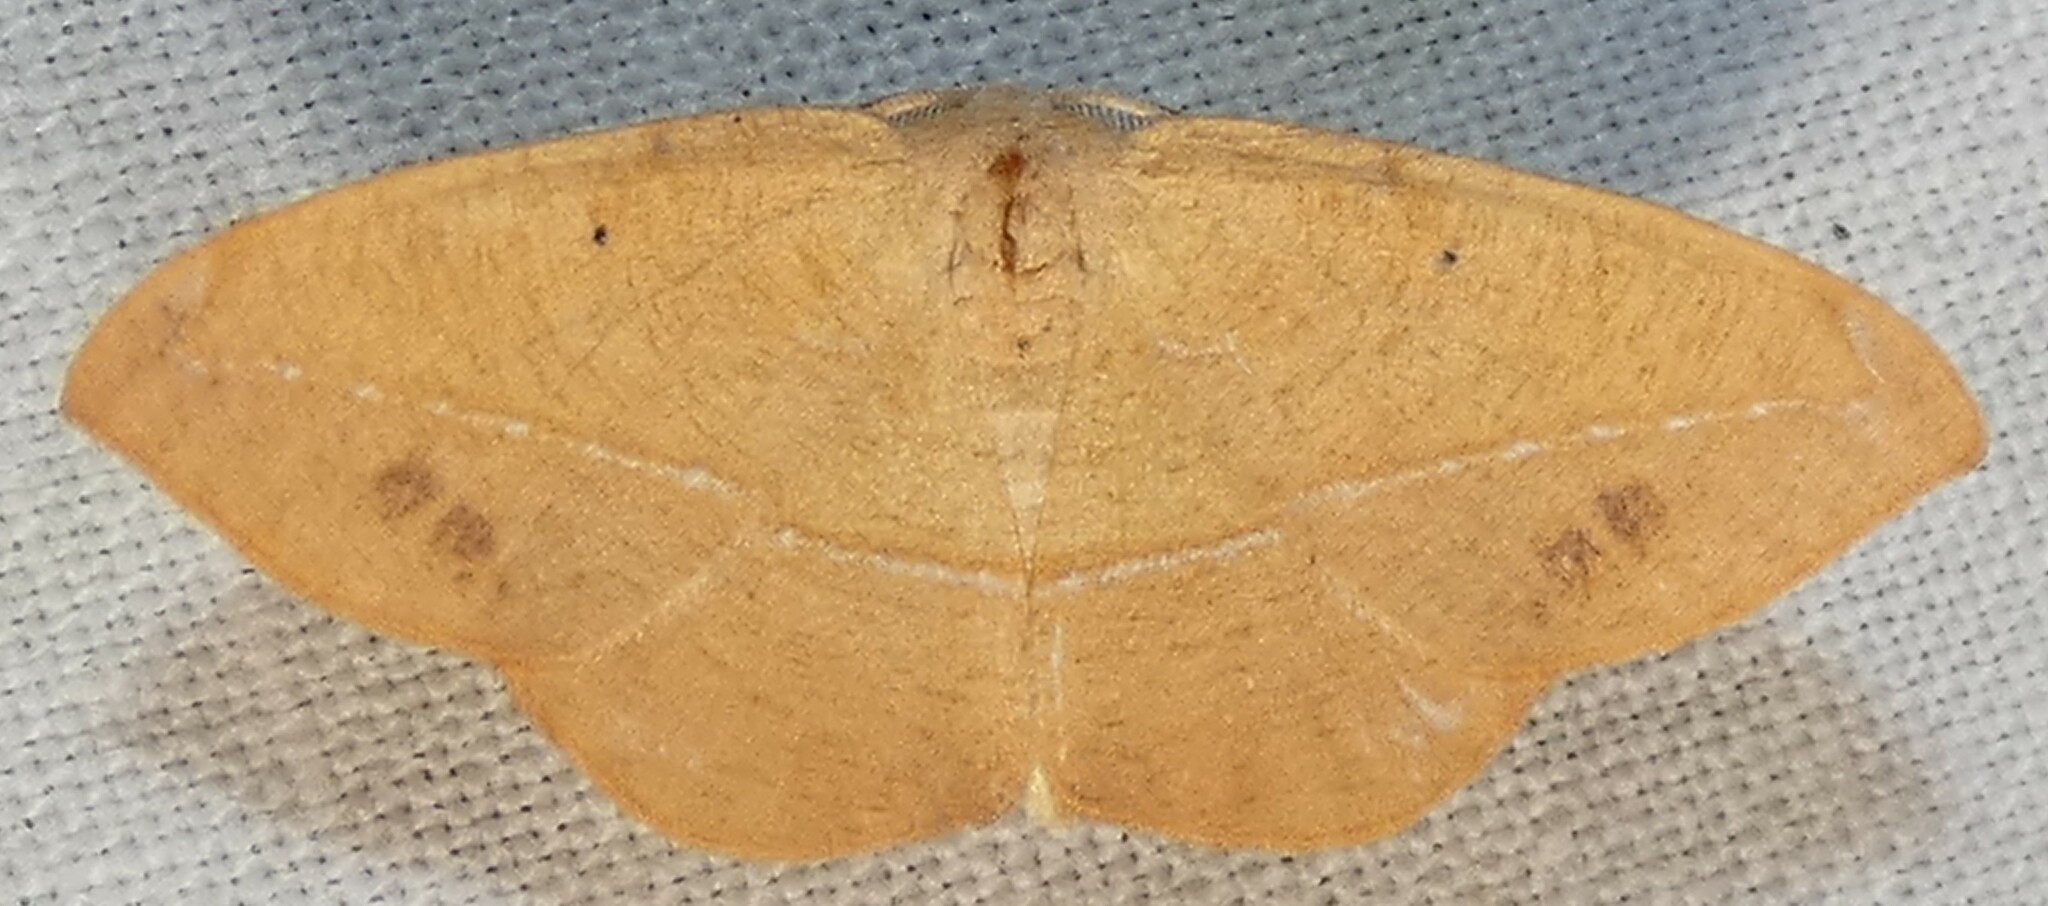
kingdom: Animalia
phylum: Arthropoda
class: Insecta
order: Lepidoptera
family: Geometridae
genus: Patalene
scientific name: Patalene olyzonaria
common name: Juniper geometer moth
